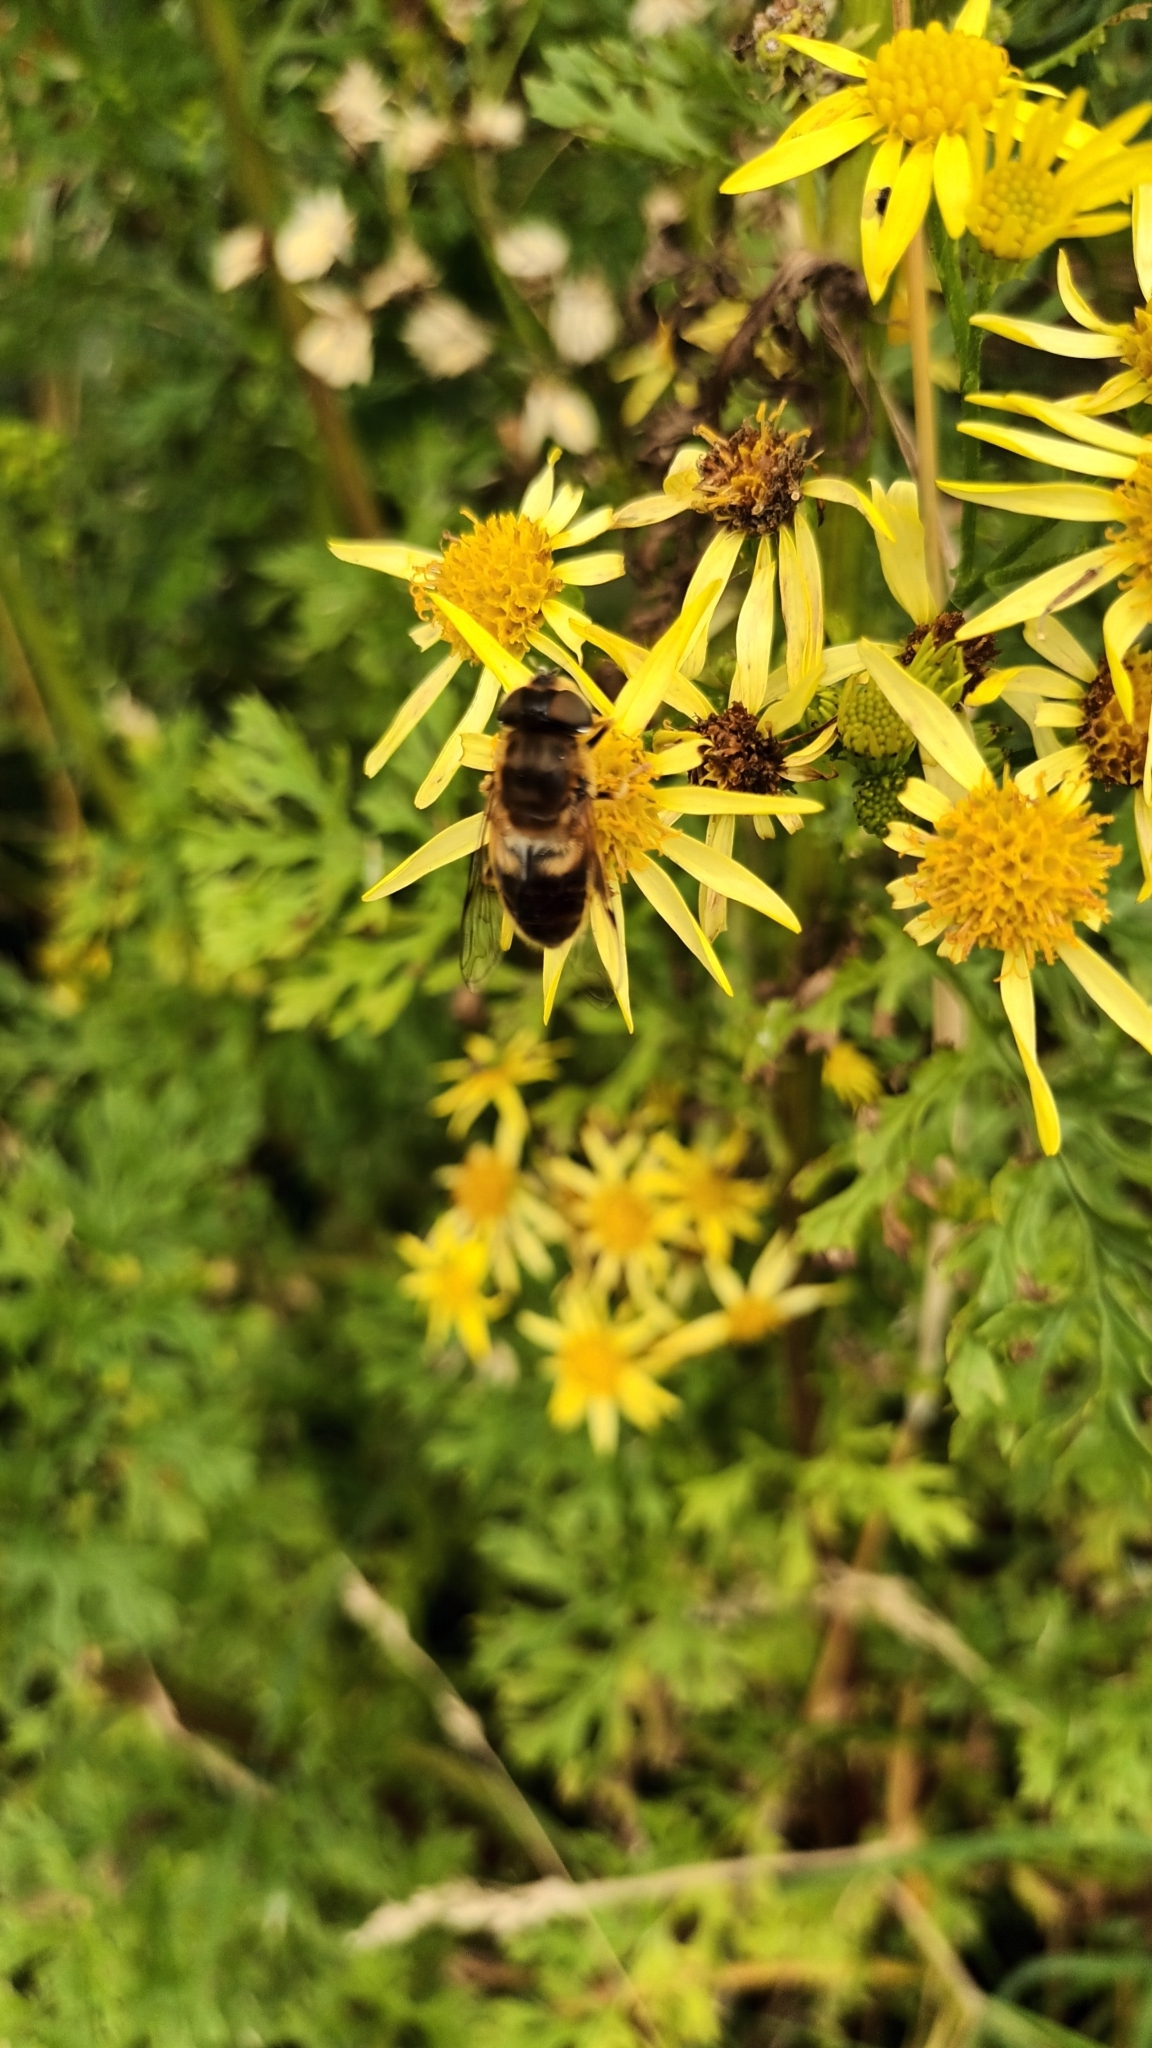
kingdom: Animalia
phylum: Arthropoda
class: Insecta
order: Diptera
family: Syrphidae
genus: Eristalis
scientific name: Eristalis pertinax
